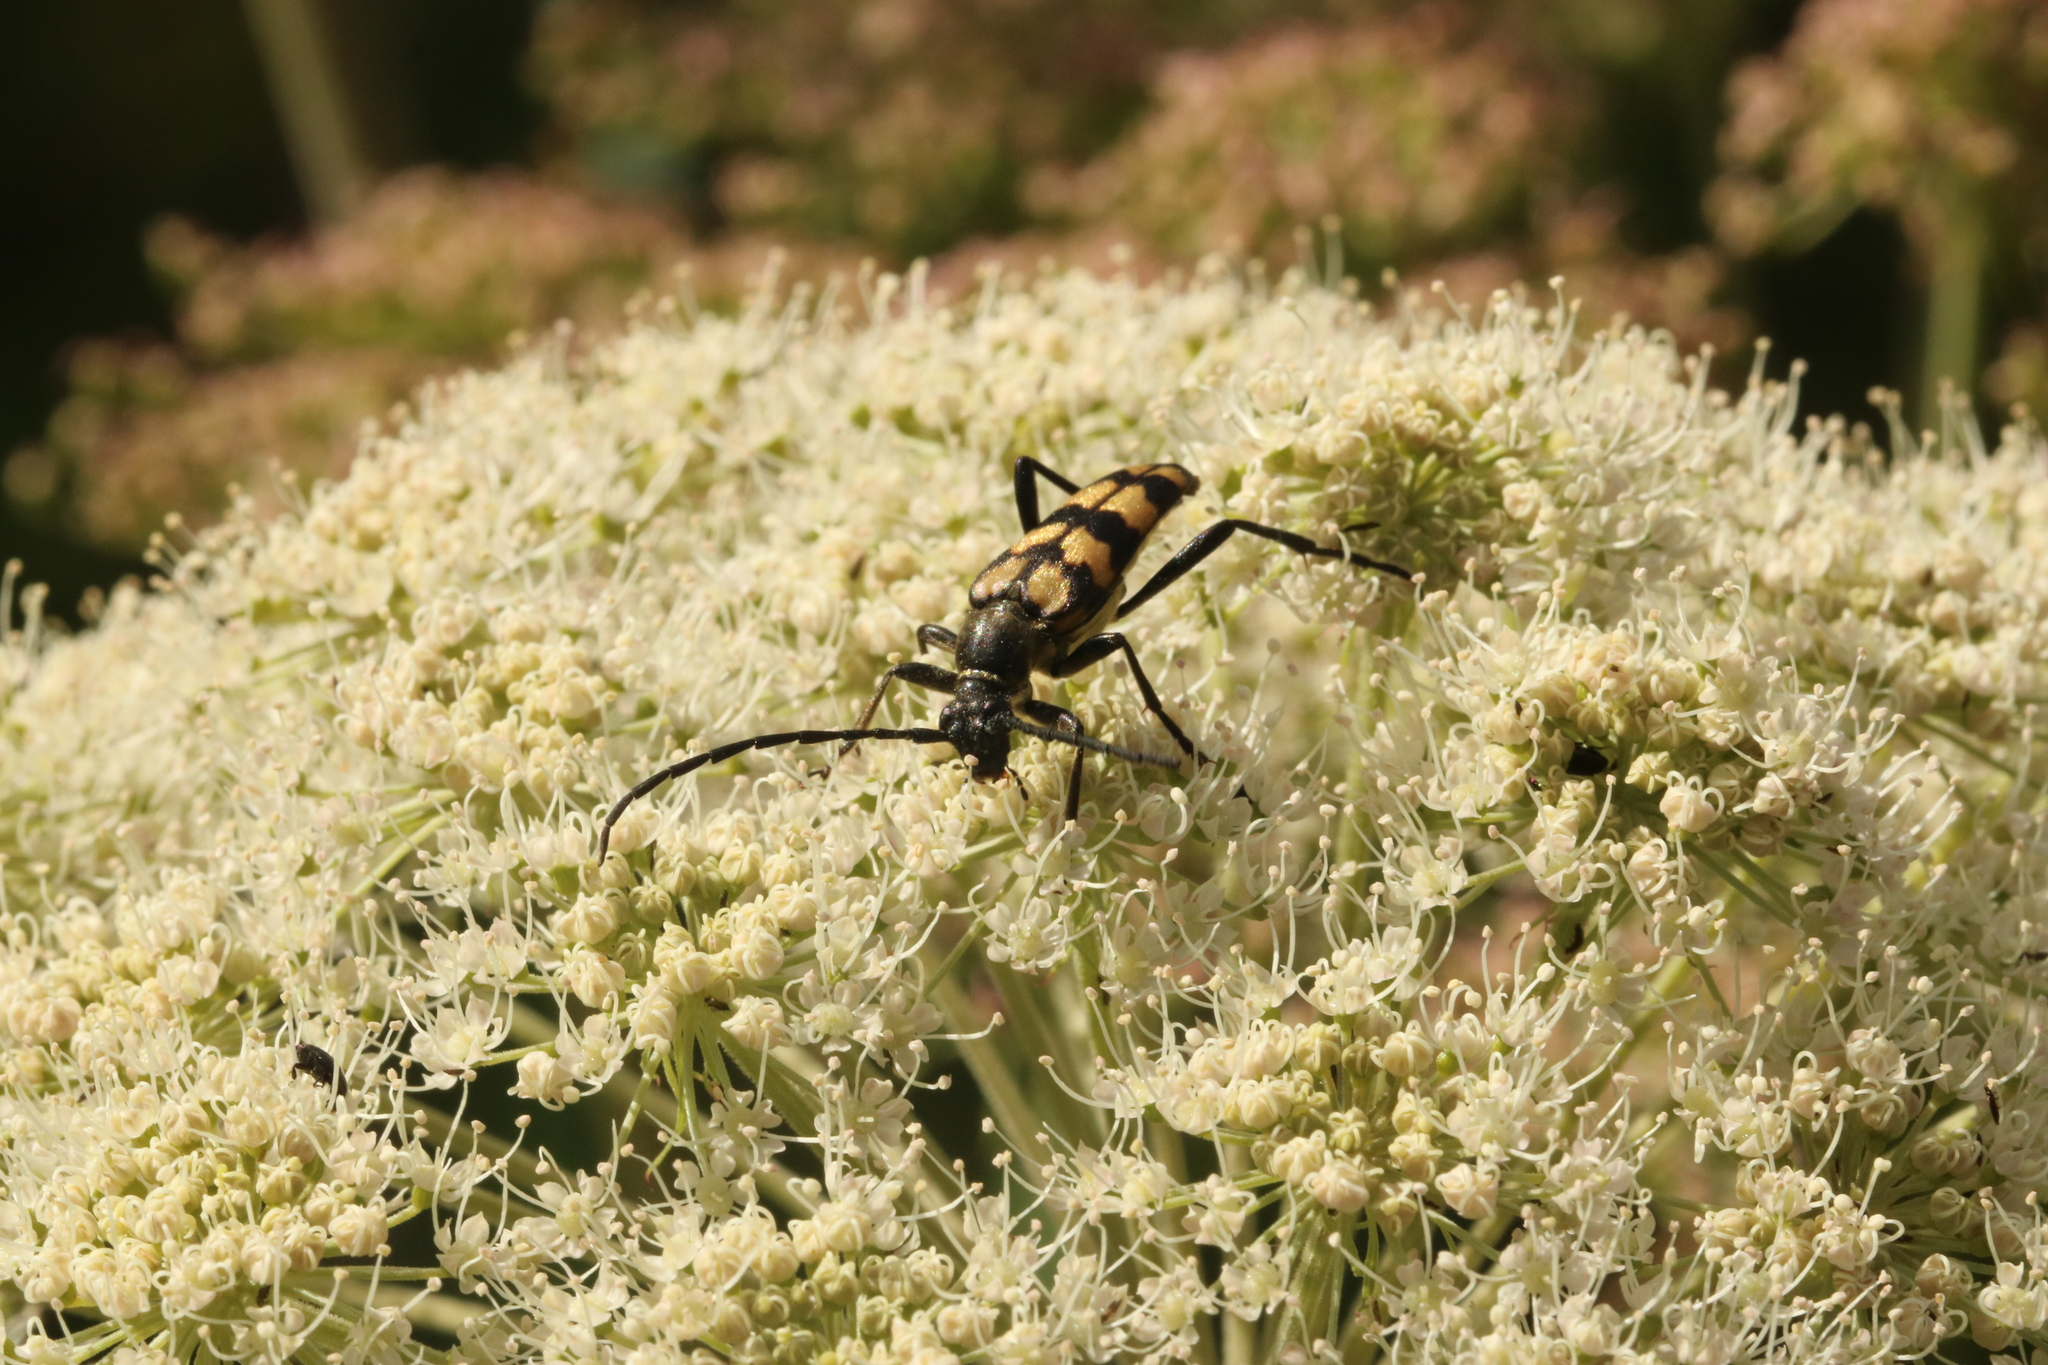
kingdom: Animalia
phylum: Arthropoda
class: Insecta
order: Coleoptera
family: Cerambycidae
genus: Leptura
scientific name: Leptura quadrifasciata
